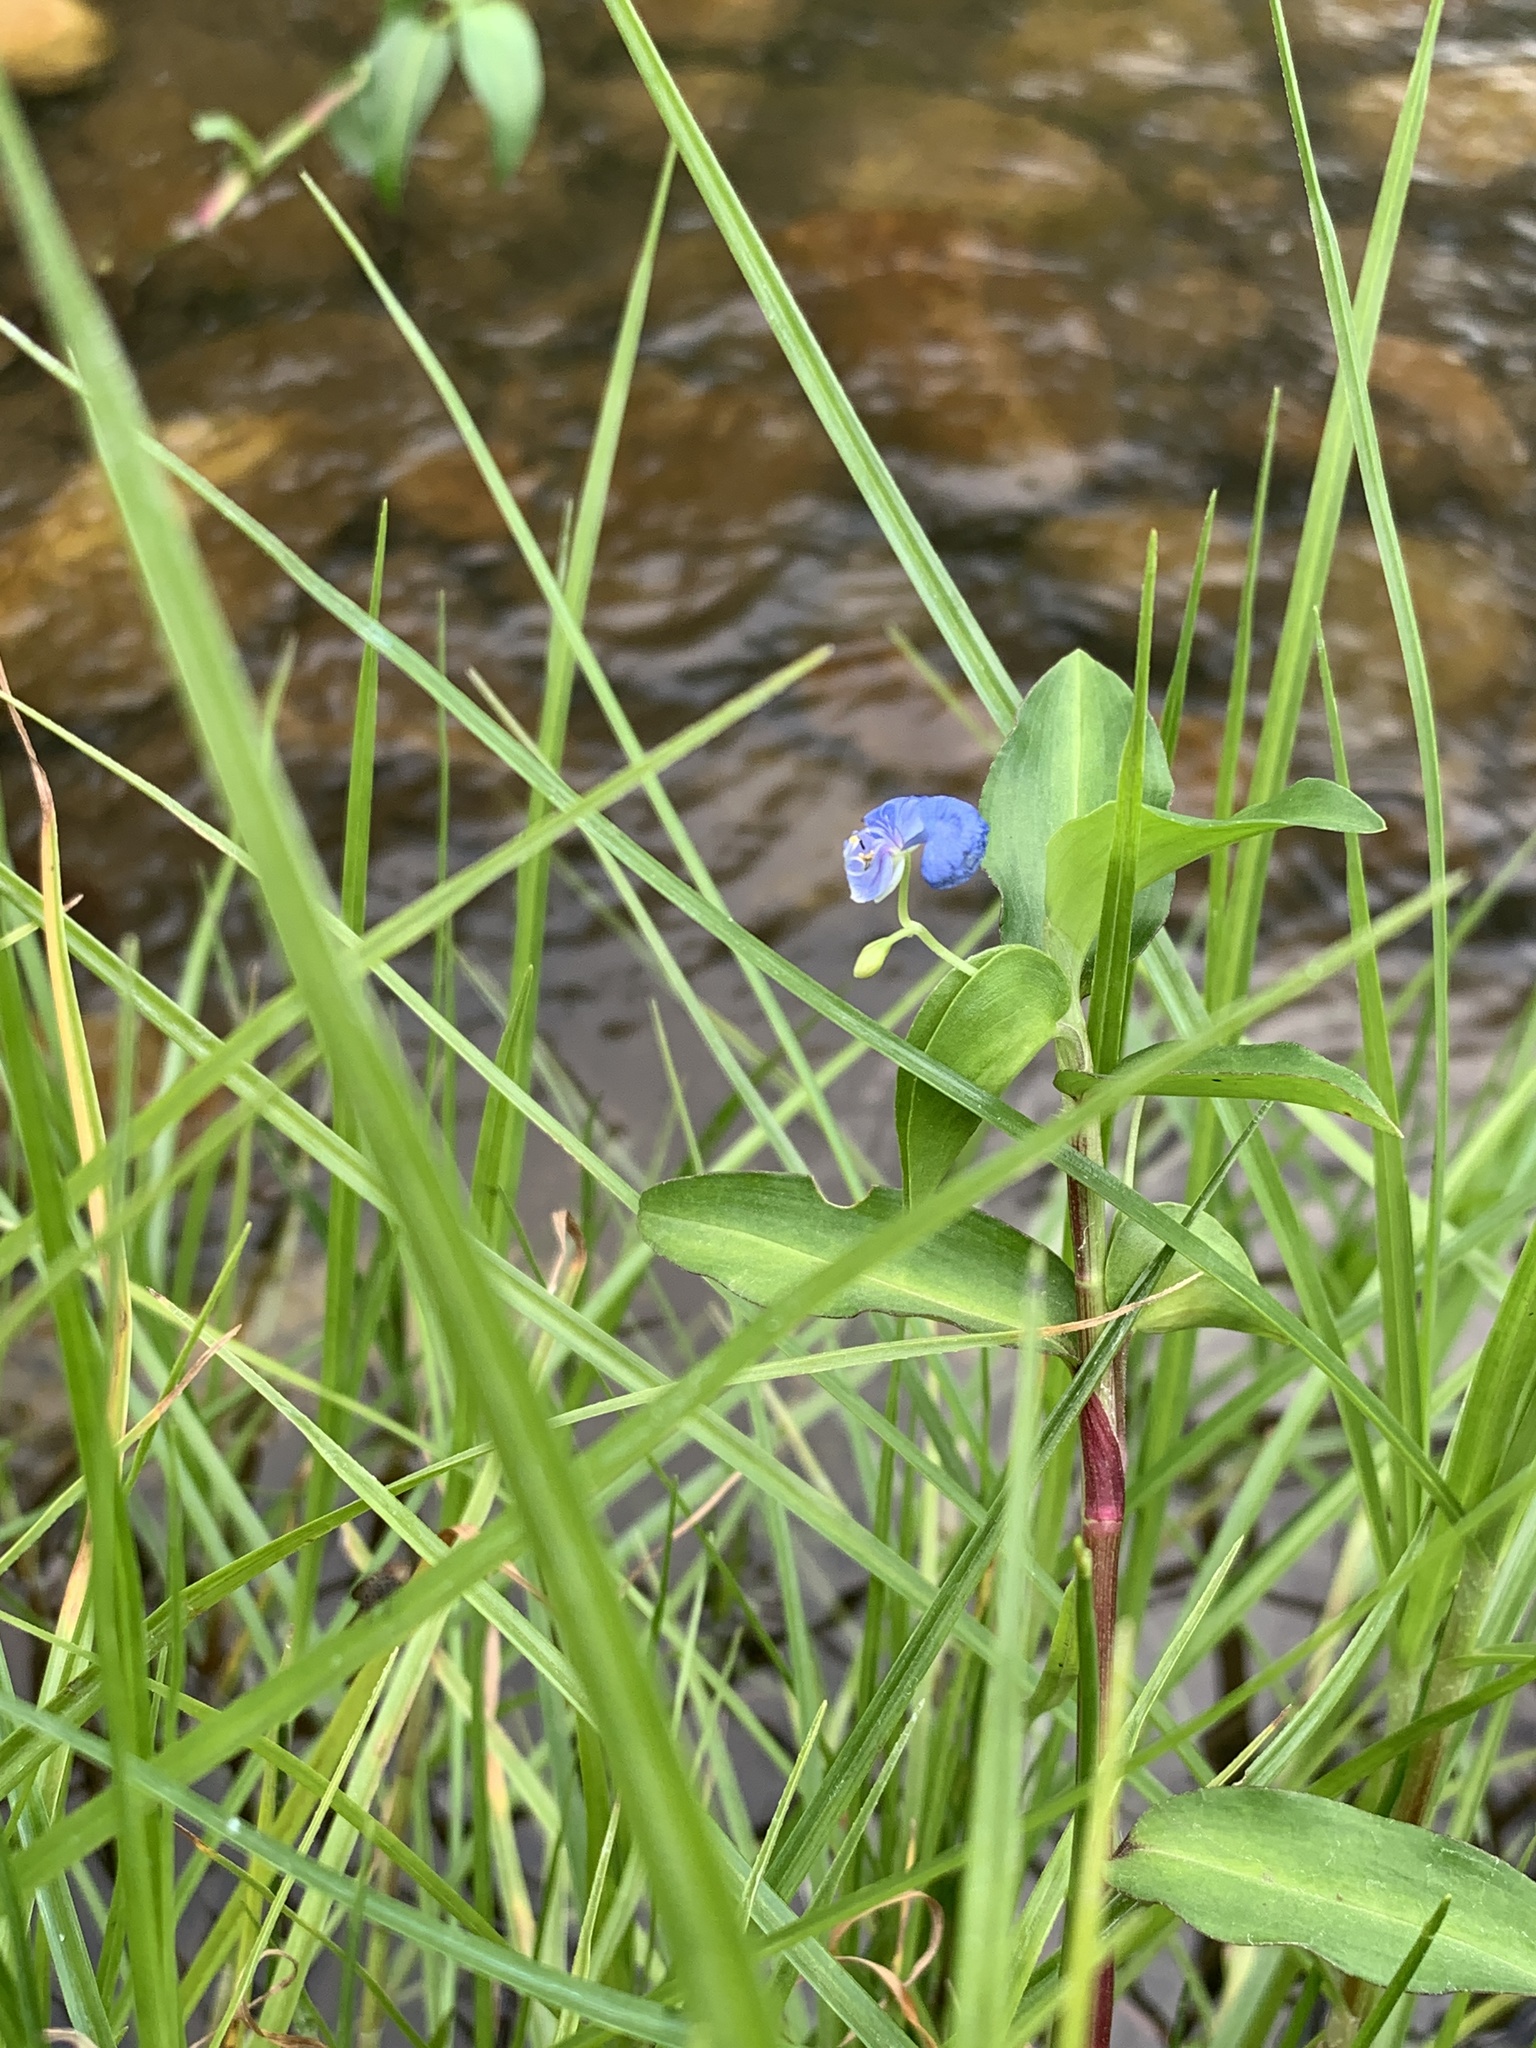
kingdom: Plantae
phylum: Tracheophyta
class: Liliopsida
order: Commelinales
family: Commelinaceae
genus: Commelina
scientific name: Commelina diffusa
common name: Climbing dayflower
